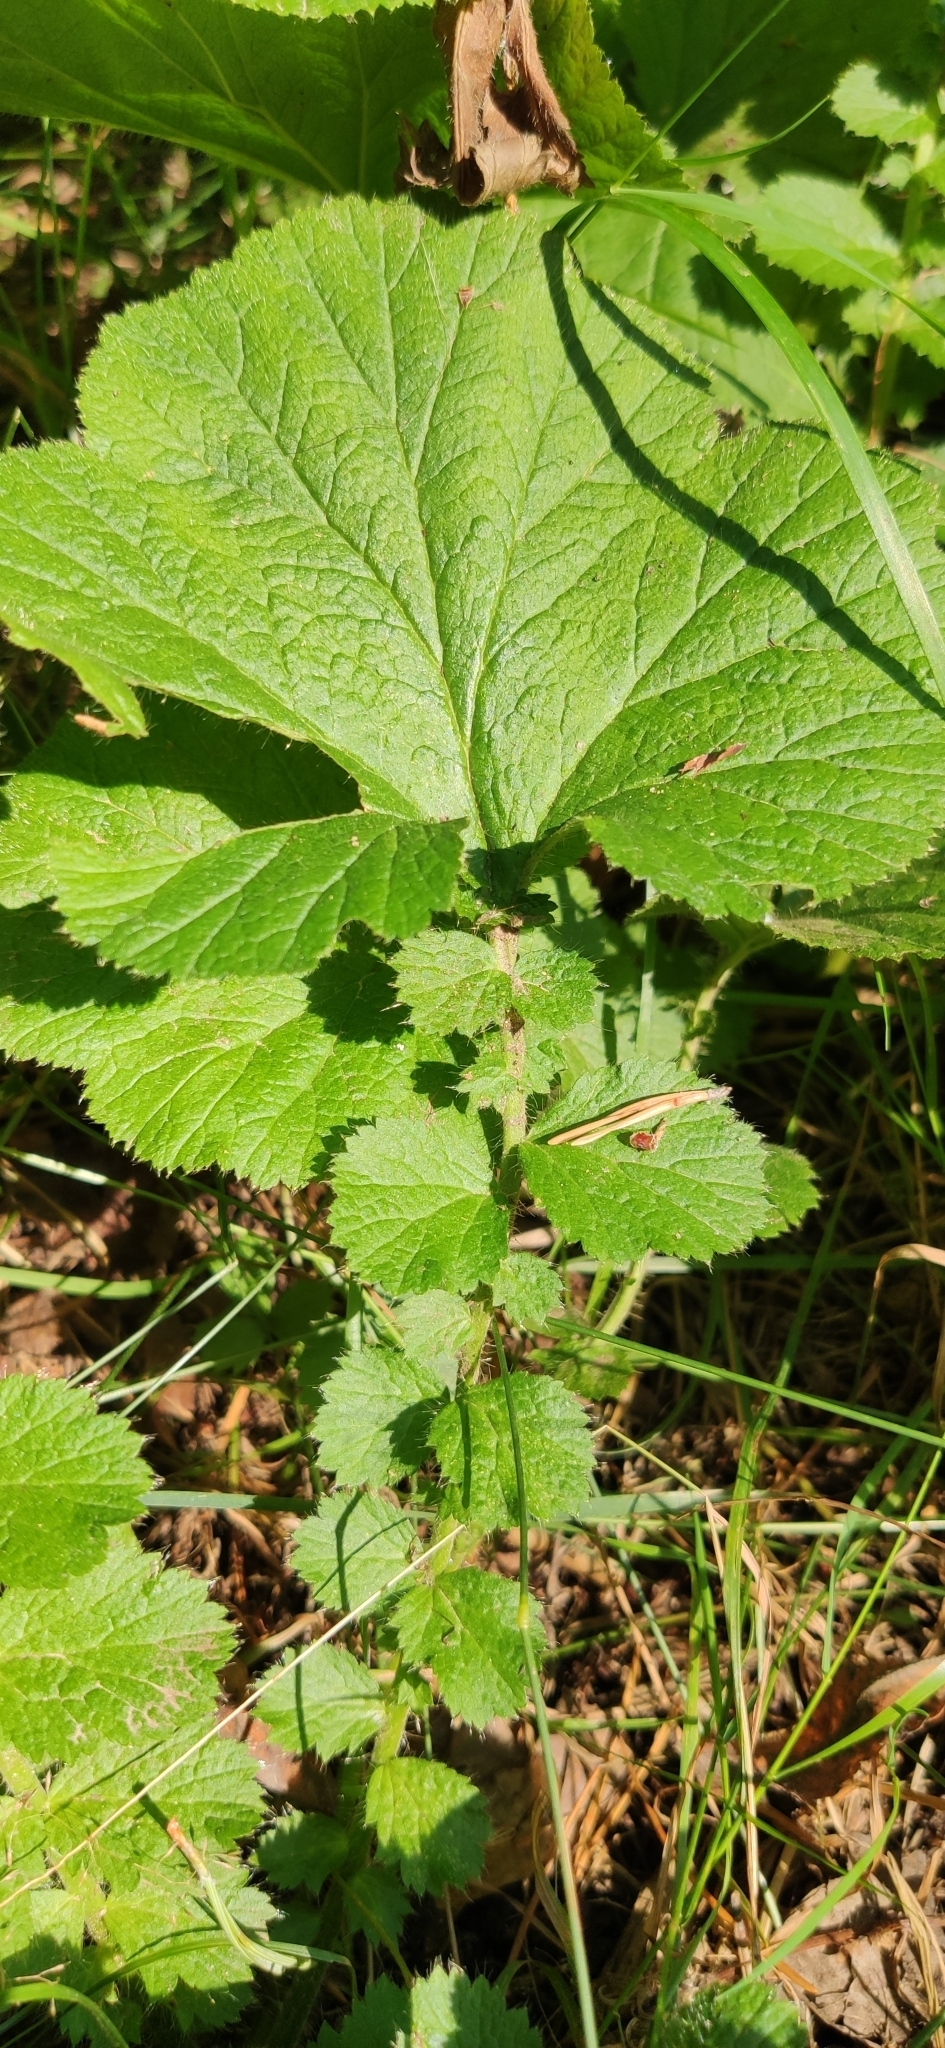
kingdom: Plantae
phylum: Tracheophyta
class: Magnoliopsida
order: Rosales
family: Rosaceae
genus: Geum
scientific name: Geum macrophyllum
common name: Large-leaved avens
